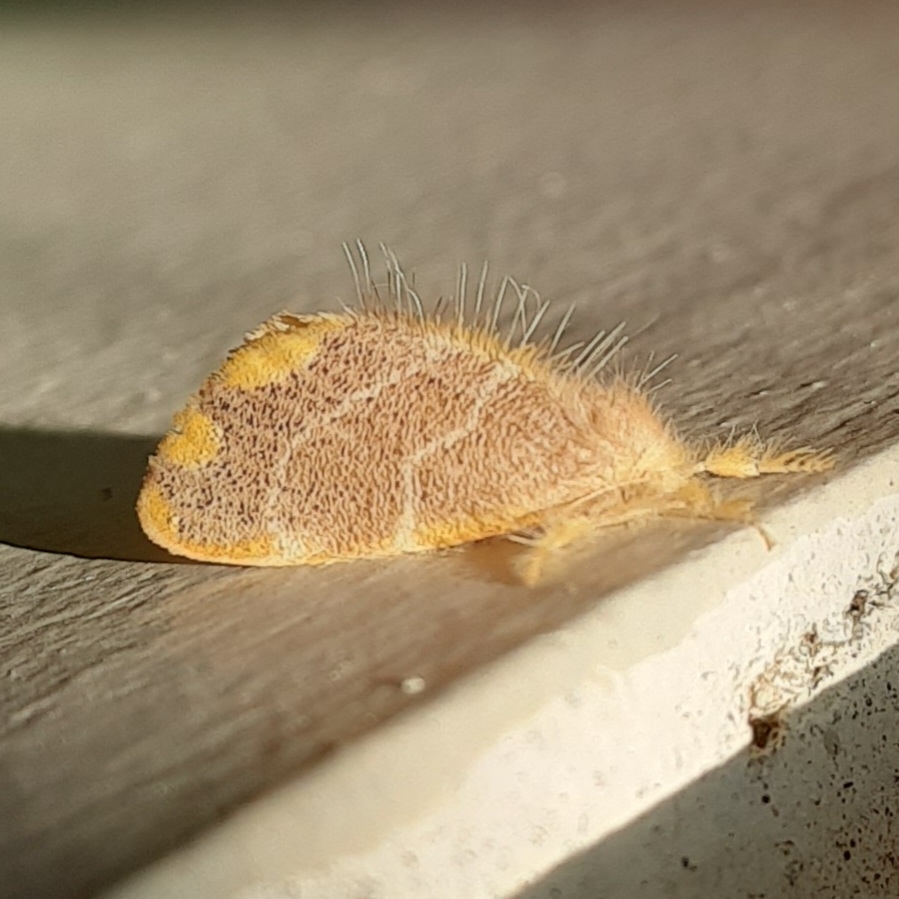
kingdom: Animalia
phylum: Arthropoda
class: Insecta
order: Lepidoptera
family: Erebidae
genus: Orvasca
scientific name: Orvasca subnotata
